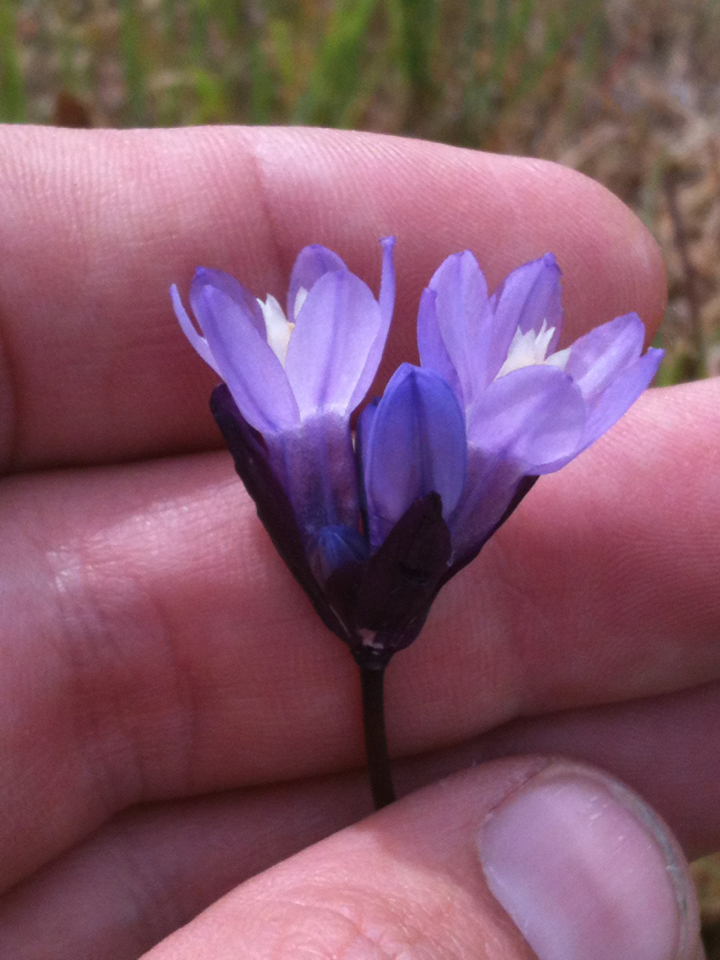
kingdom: Plantae
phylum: Tracheophyta
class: Liliopsida
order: Asparagales
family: Asparagaceae
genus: Dipterostemon
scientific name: Dipterostemon capitatus
